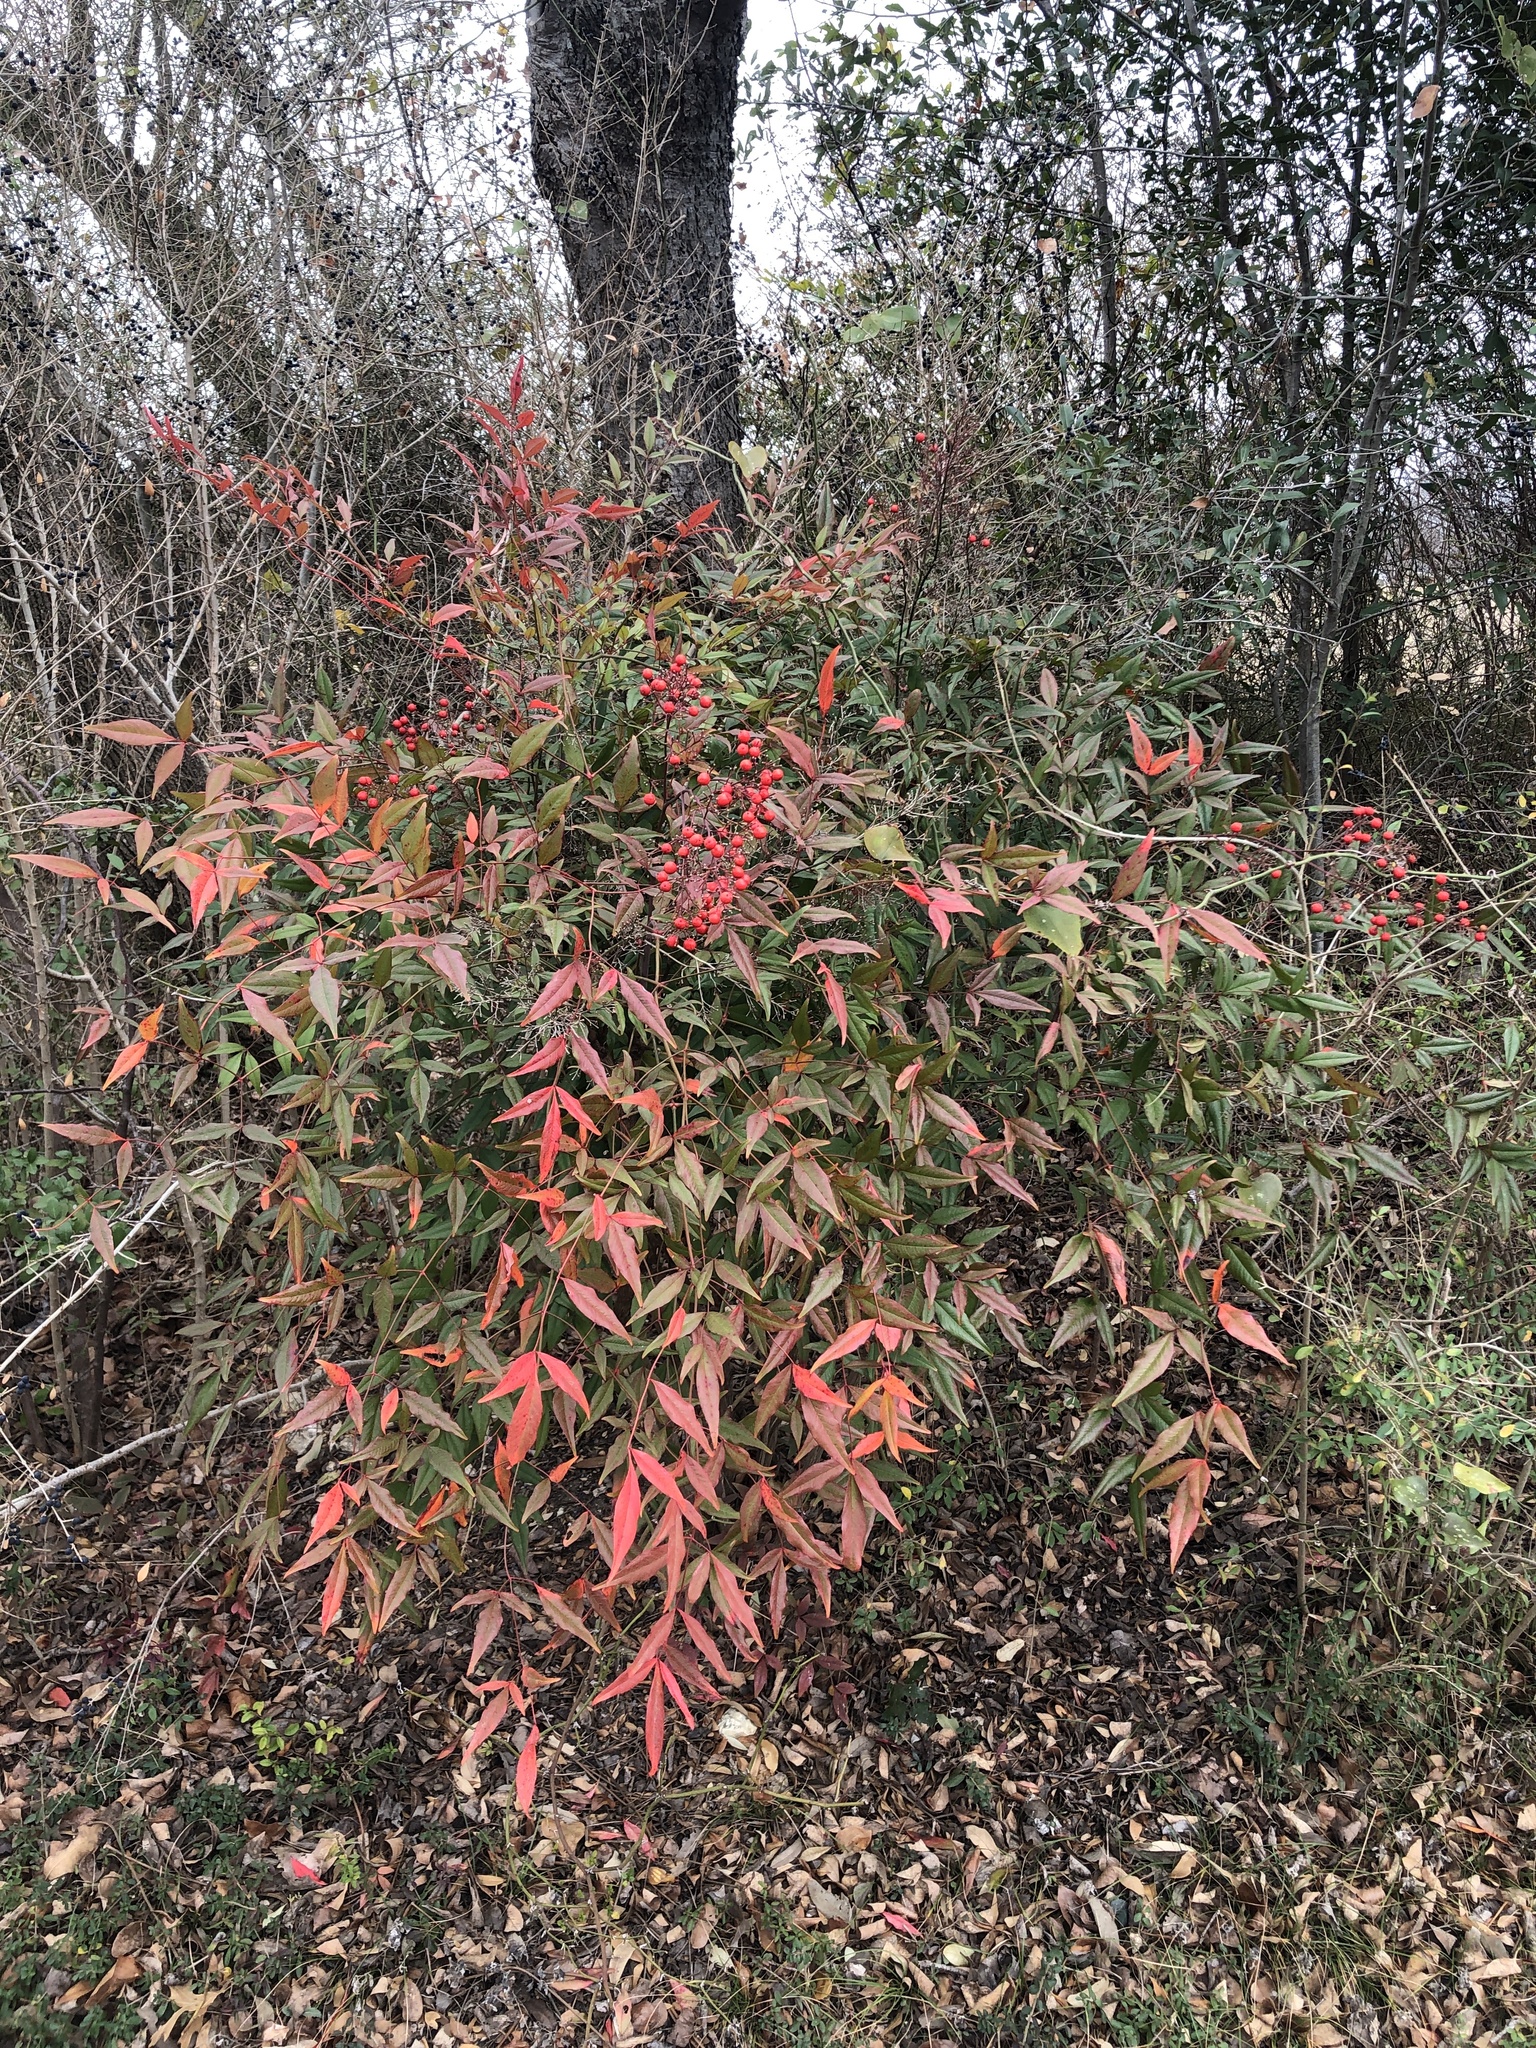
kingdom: Plantae
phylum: Tracheophyta
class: Magnoliopsida
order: Ranunculales
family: Berberidaceae
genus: Nandina
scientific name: Nandina domestica
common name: Sacred bamboo
